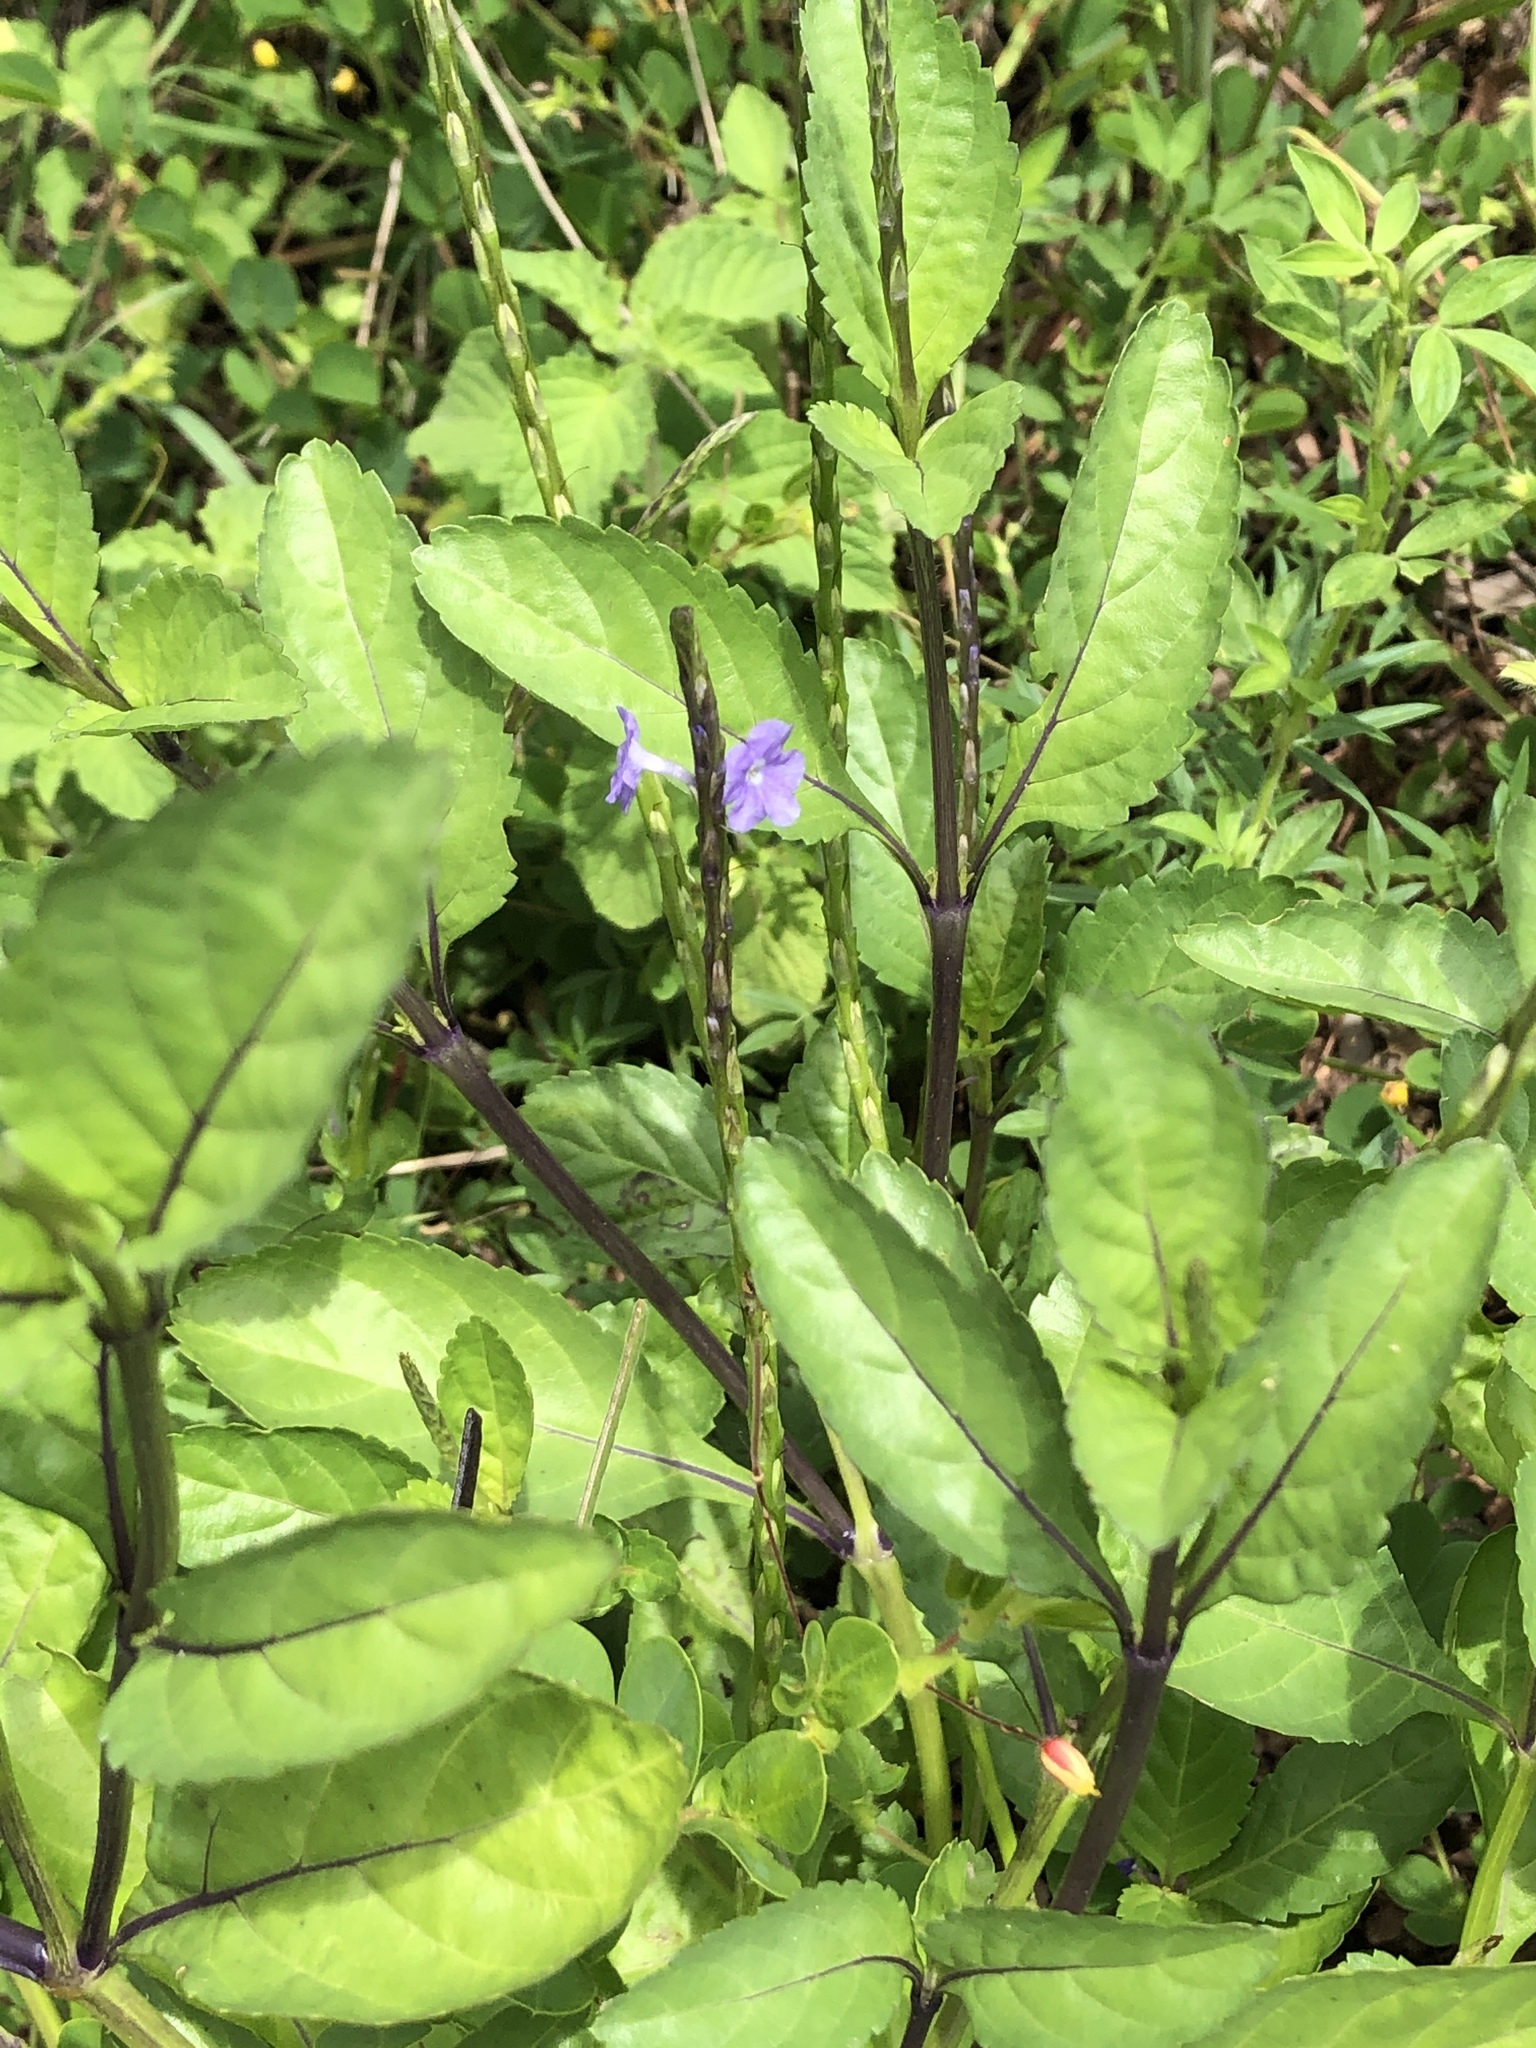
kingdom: Plantae
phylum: Tracheophyta
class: Magnoliopsida
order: Lamiales
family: Verbenaceae
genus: Stachytarpheta
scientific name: Stachytarpheta jamaicensis
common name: Light-blue snakeweed
